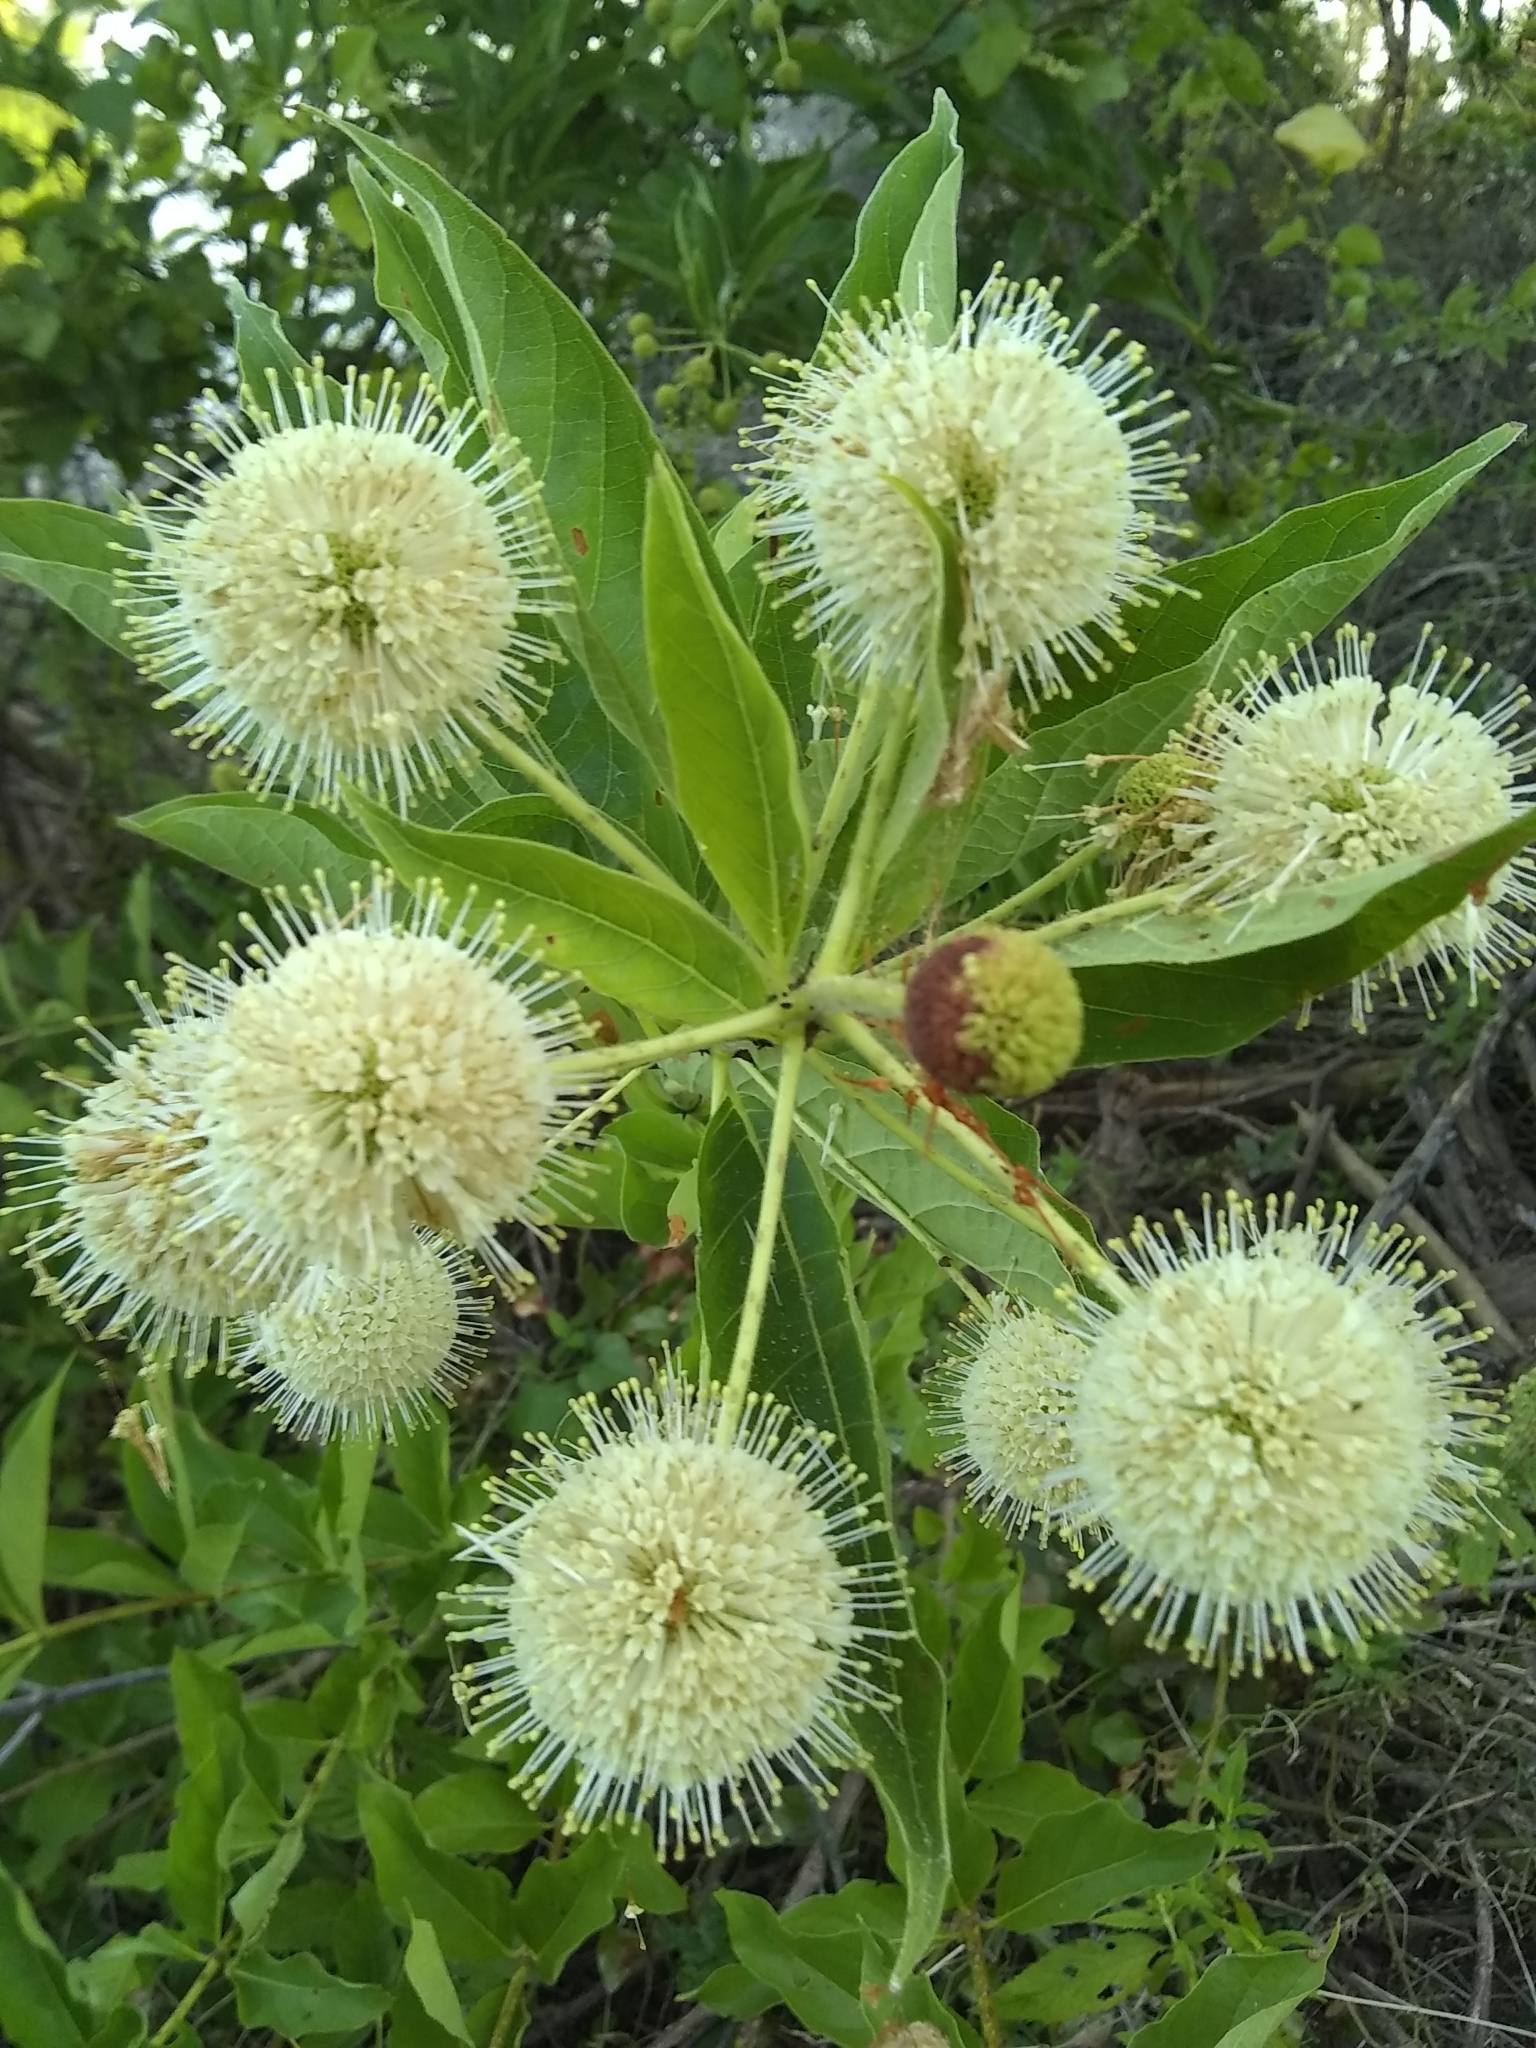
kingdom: Plantae
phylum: Tracheophyta
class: Magnoliopsida
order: Gentianales
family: Rubiaceae
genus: Cephalanthus
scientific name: Cephalanthus occidentalis
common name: Button-willow
